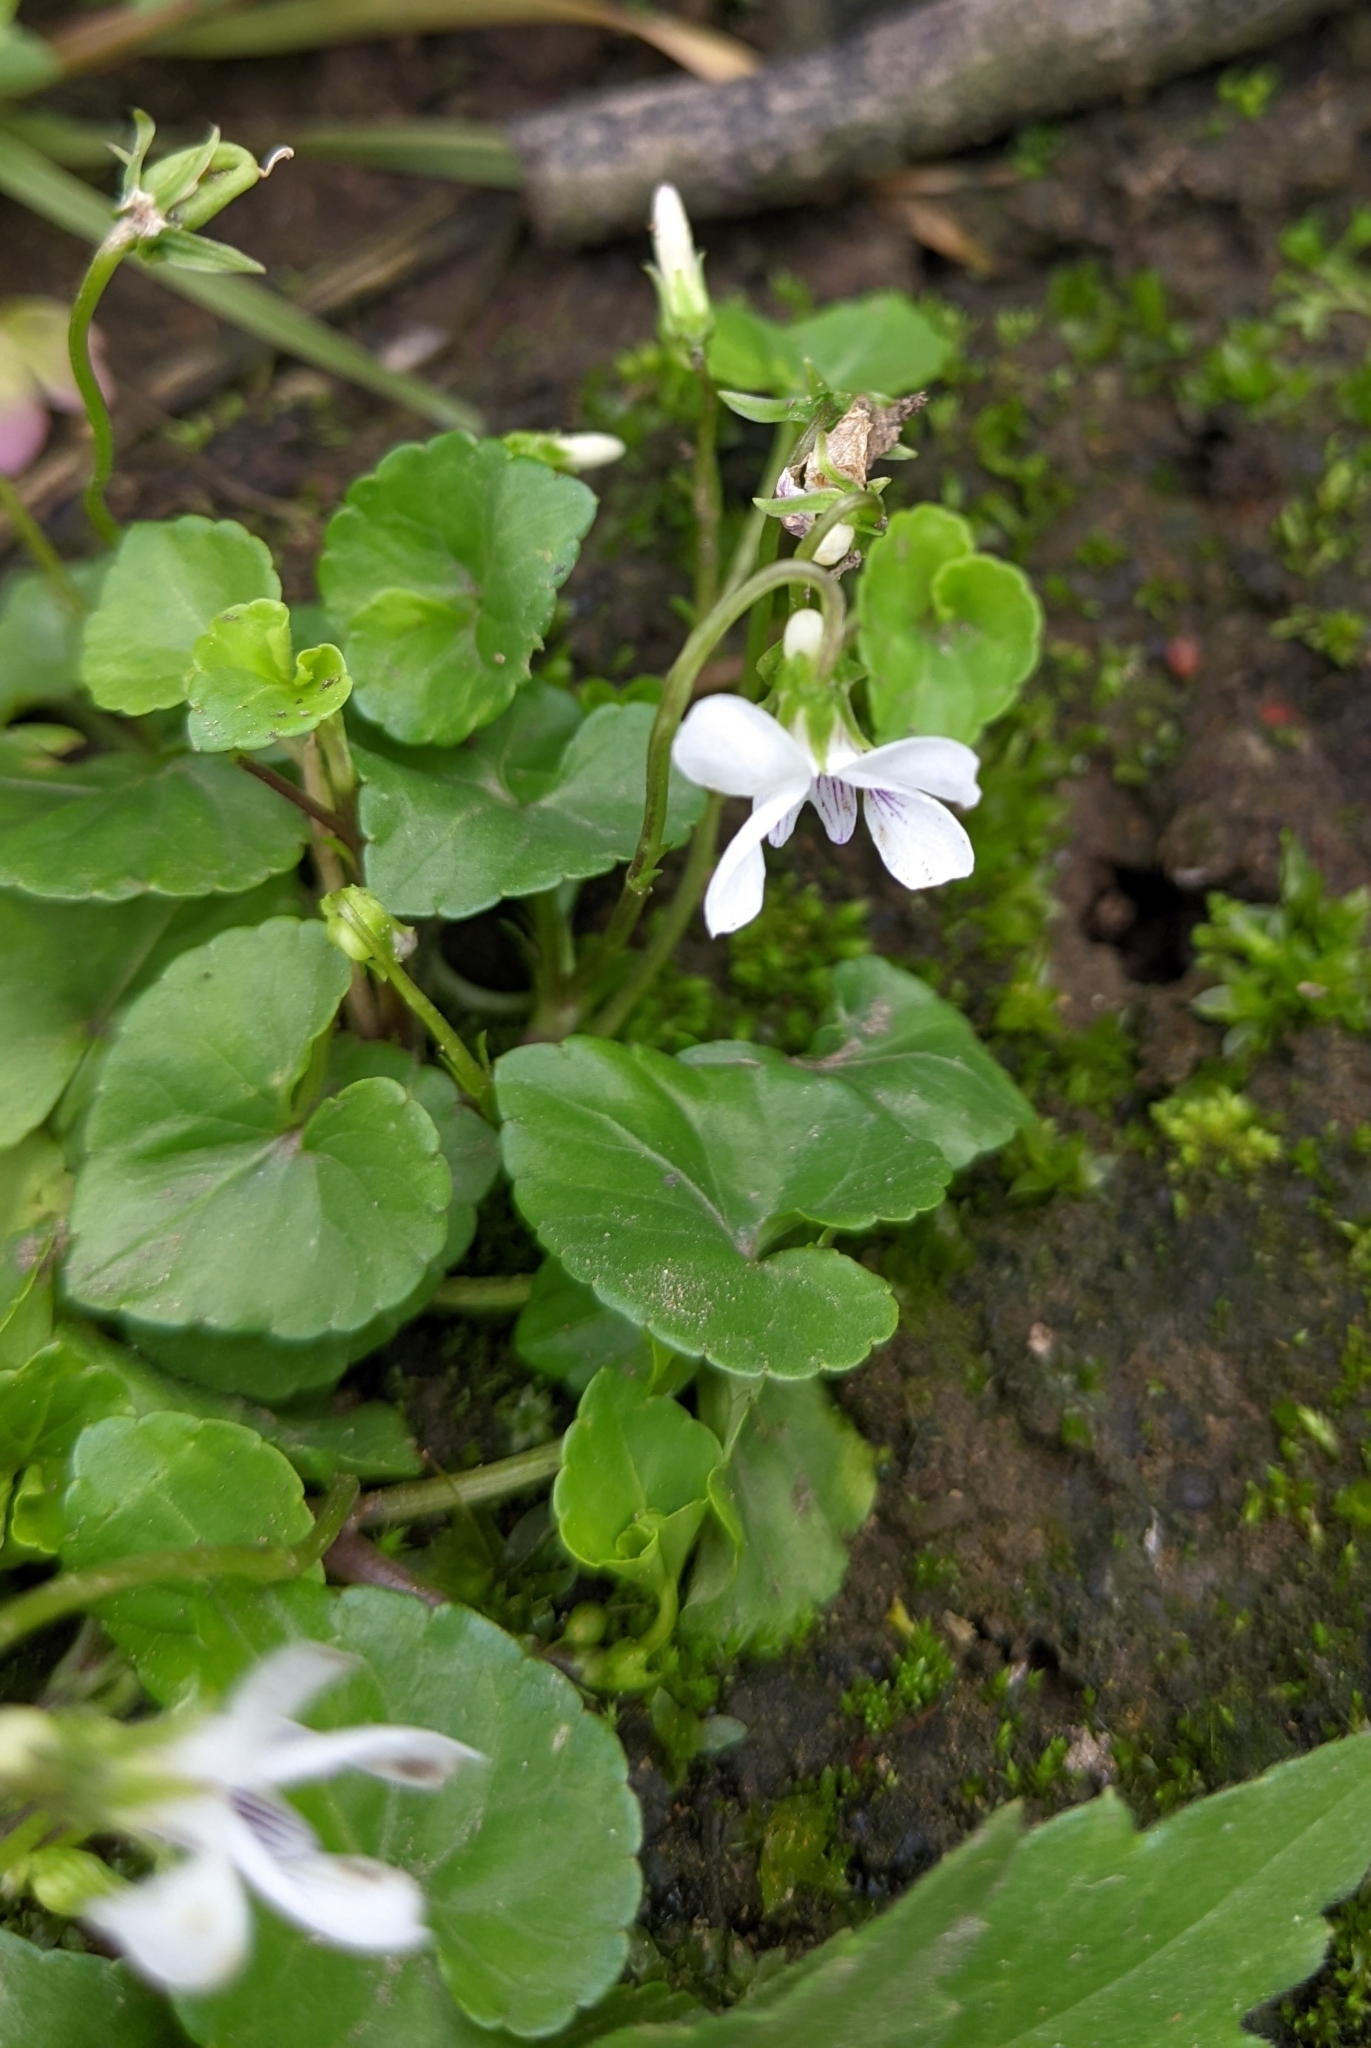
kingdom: Plantae
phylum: Tracheophyta
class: Magnoliopsida
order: Malpighiales
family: Violaceae
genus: Viola
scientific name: Viola
